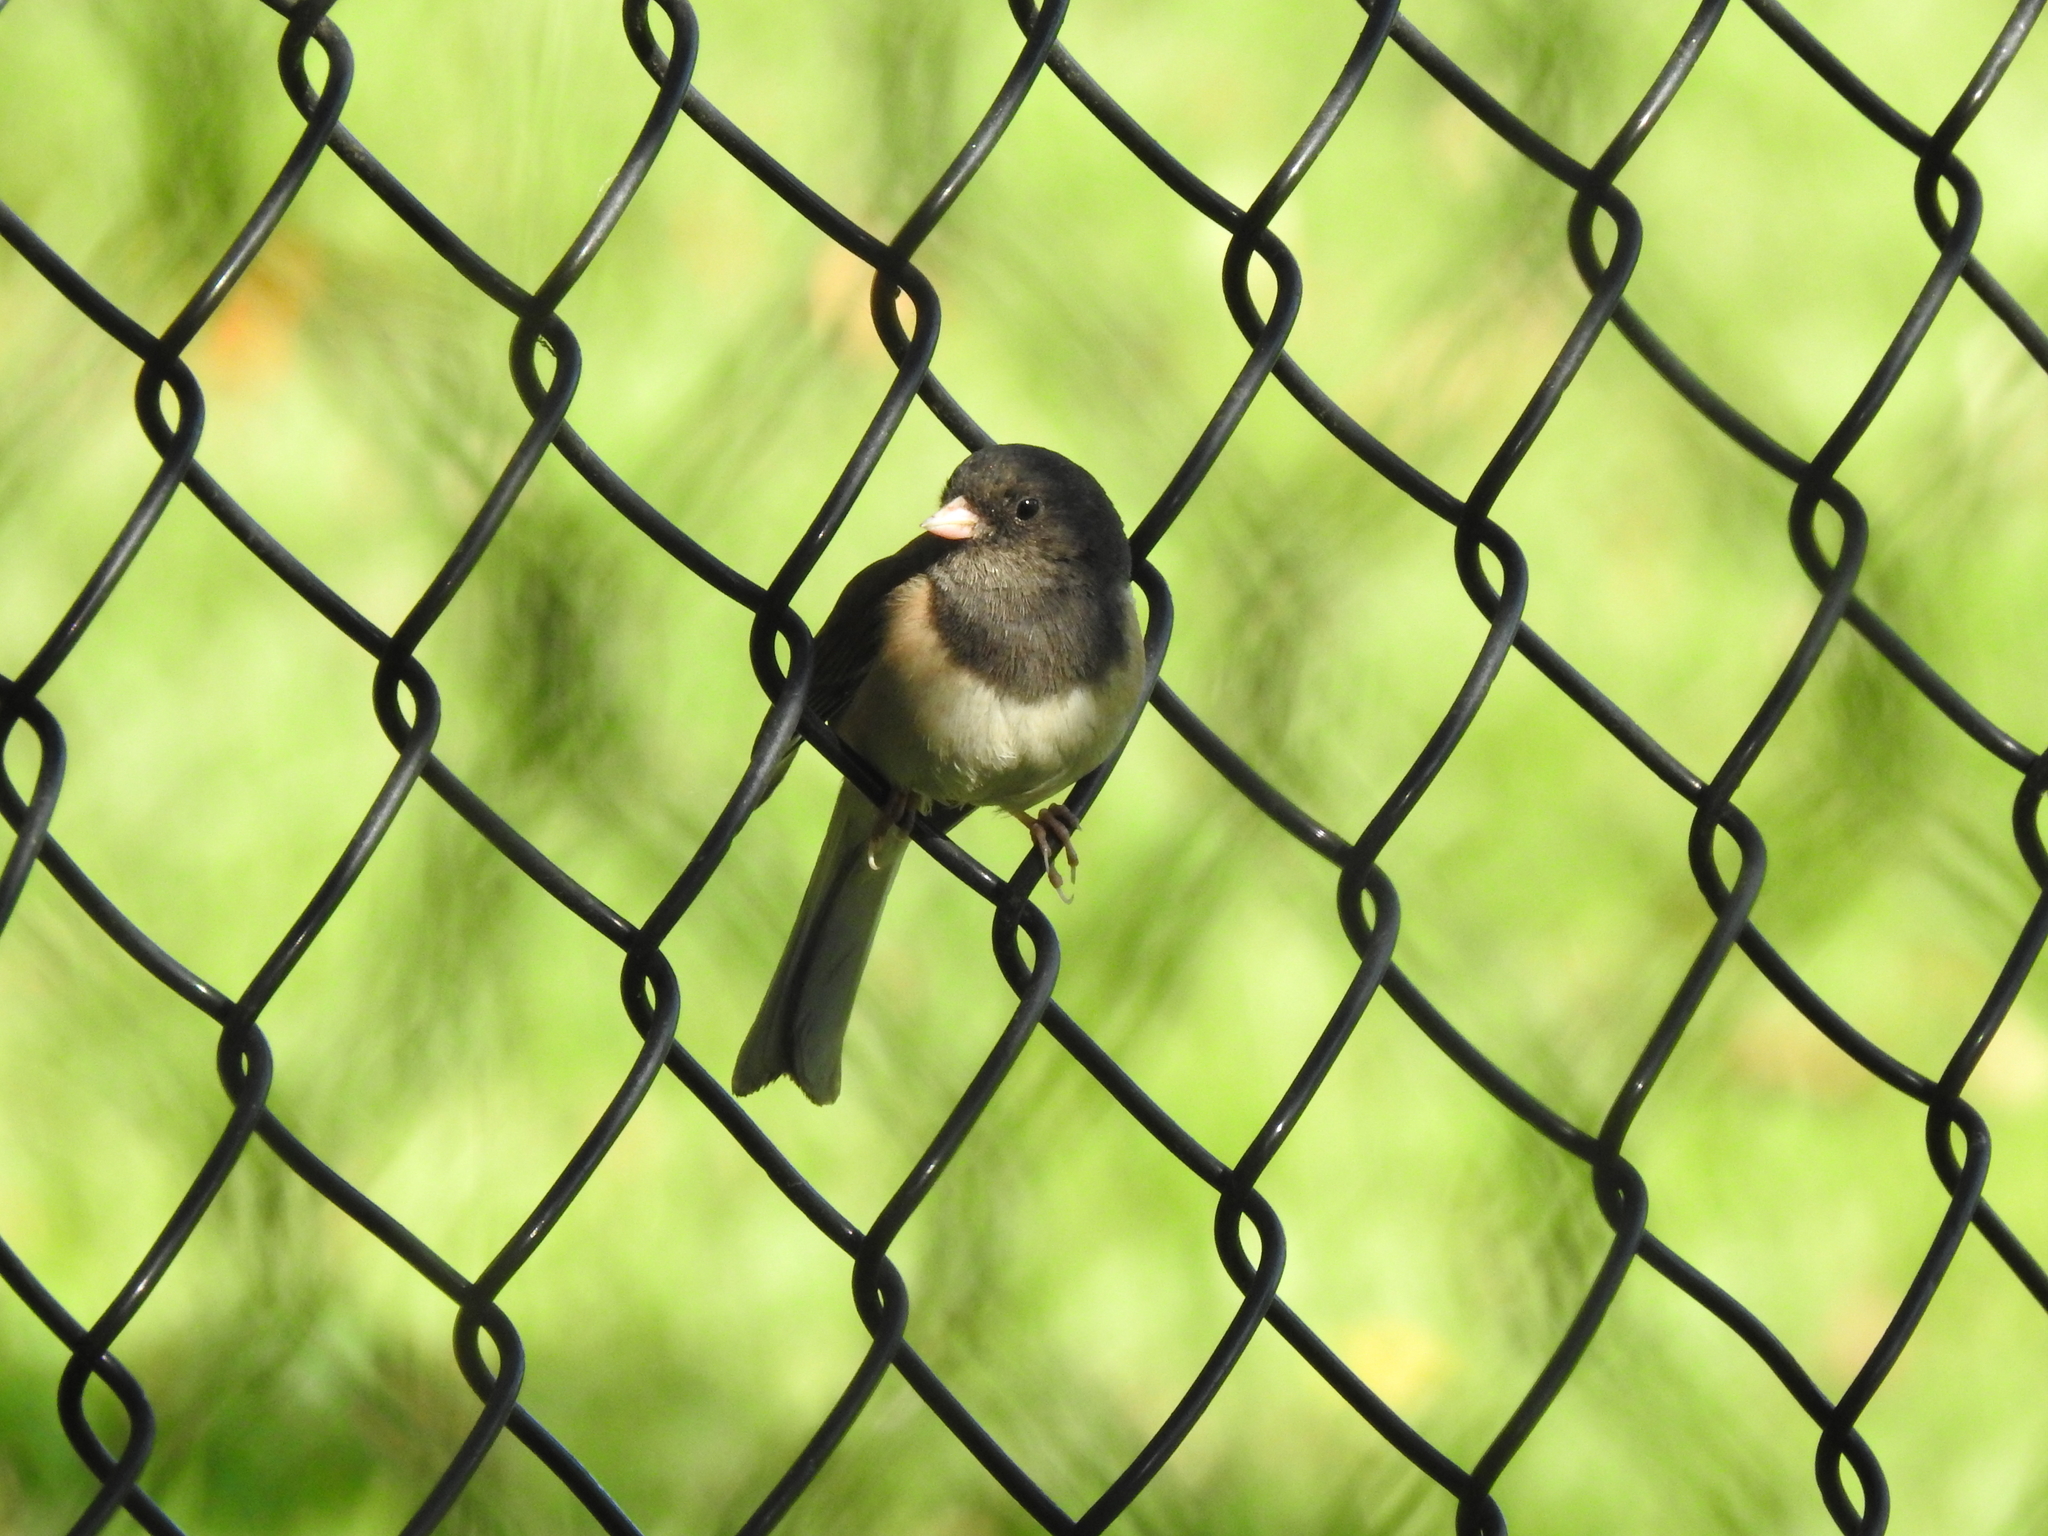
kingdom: Animalia
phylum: Chordata
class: Aves
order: Passeriformes
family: Passerellidae
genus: Junco
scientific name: Junco hyemalis
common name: Dark-eyed junco
